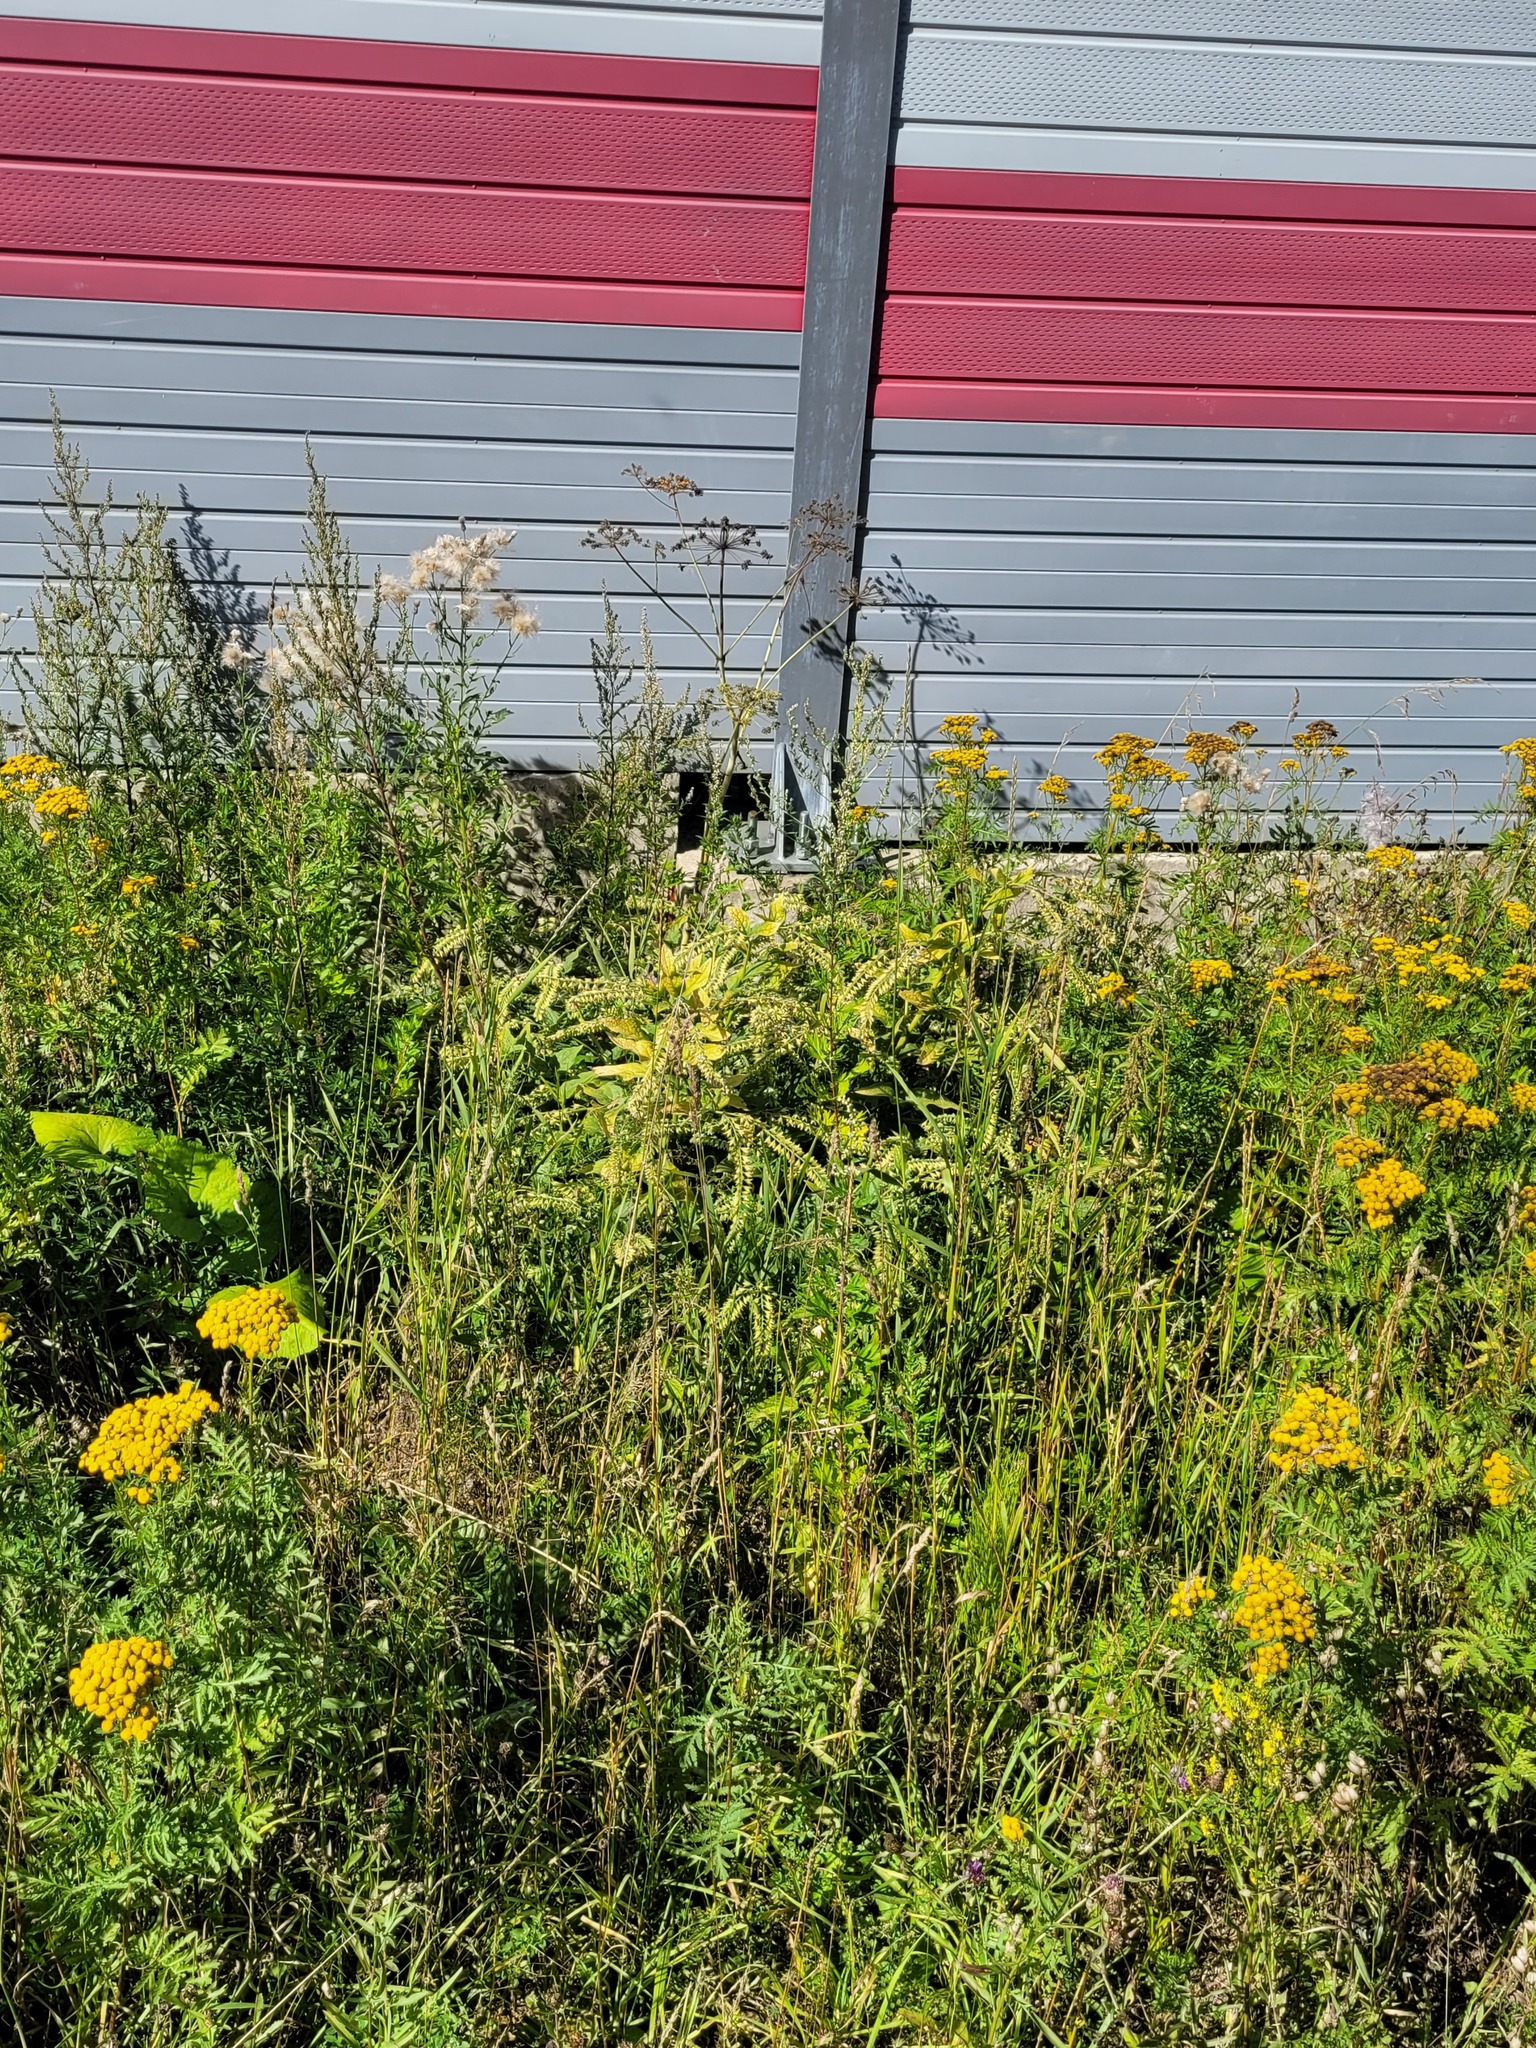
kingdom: Plantae
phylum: Tracheophyta
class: Magnoliopsida
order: Boraginales
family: Boraginaceae
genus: Symphytum
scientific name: Symphytum caucasicum
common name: Caucasian comfrey
